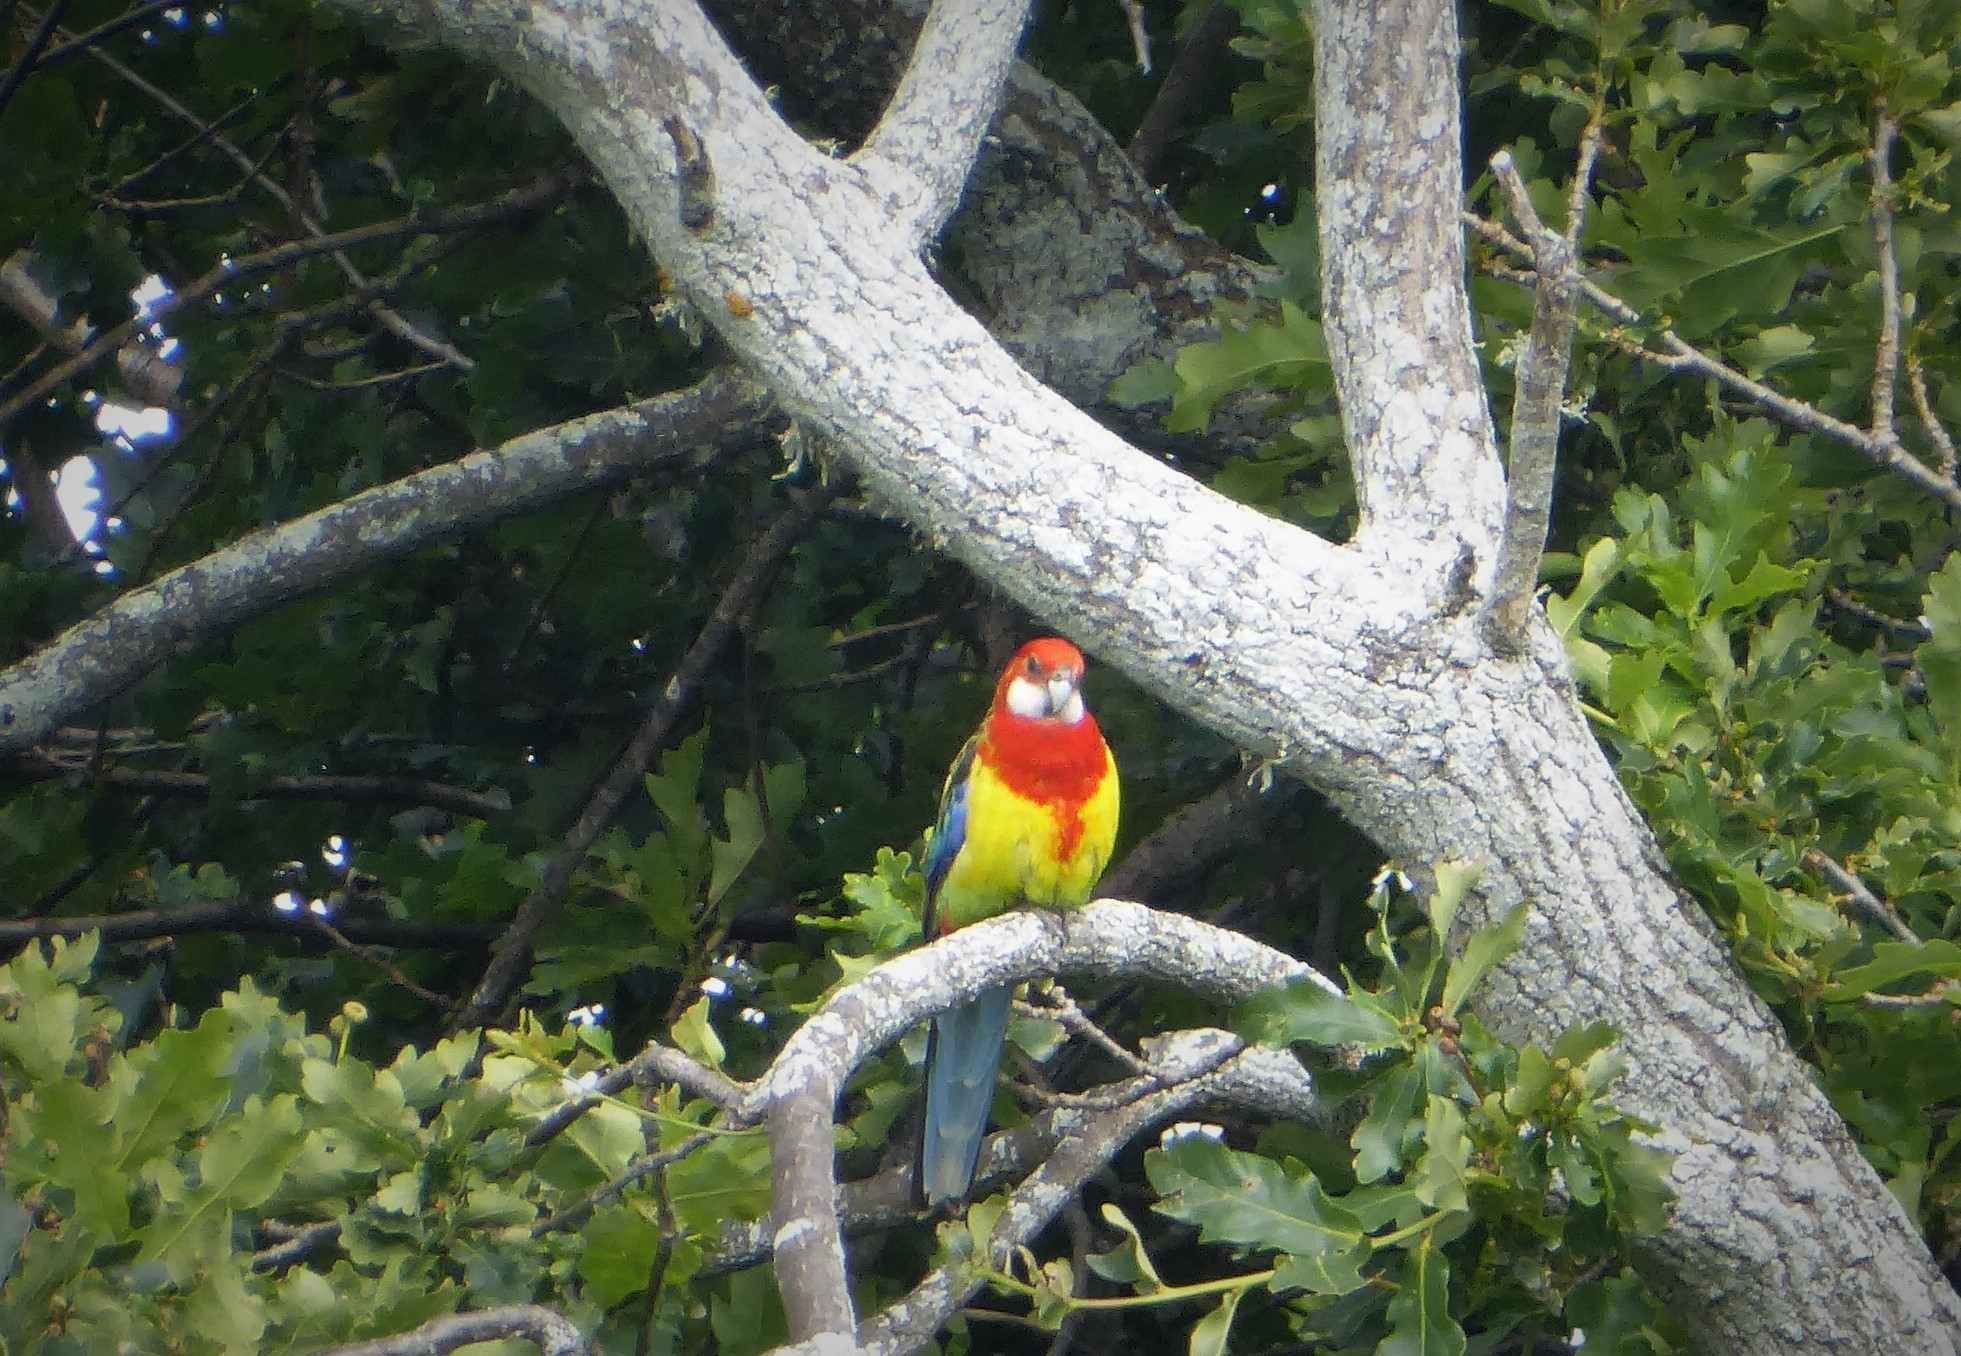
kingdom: Animalia
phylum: Chordata
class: Aves
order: Psittaciformes
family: Psittacidae
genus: Platycercus
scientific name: Platycercus eximius
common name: Eastern rosella
